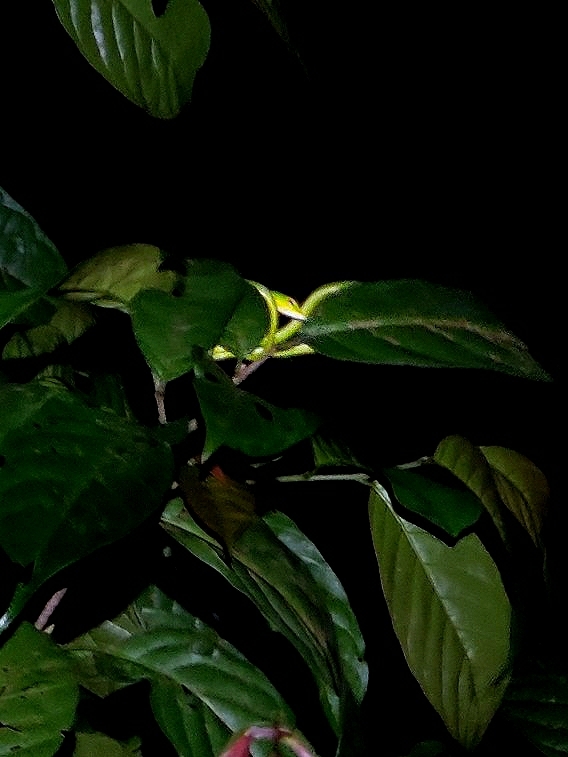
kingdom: Animalia
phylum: Chordata
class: Squamata
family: Colubridae
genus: Ahaetulla
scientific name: Ahaetulla farnsworthi
